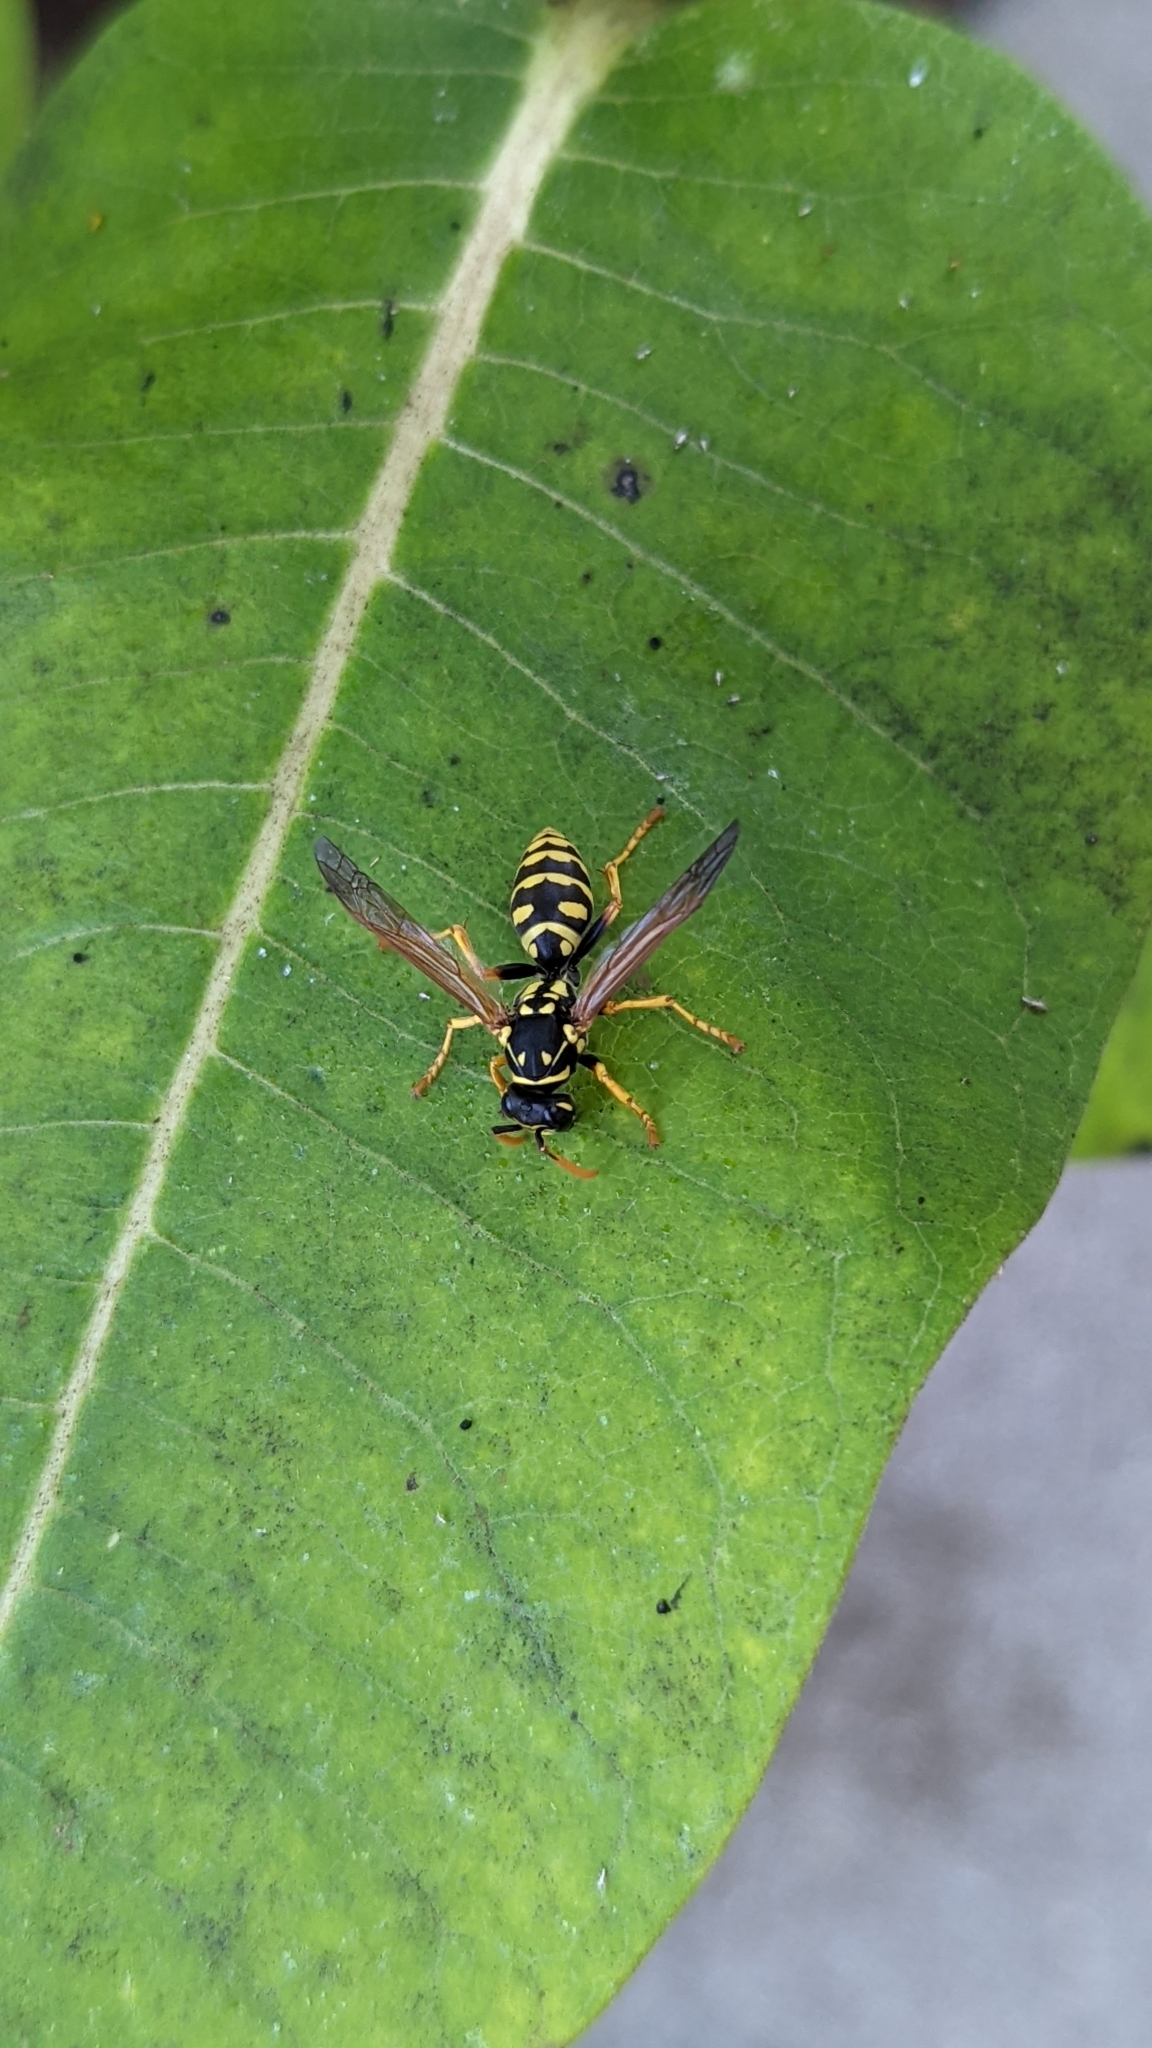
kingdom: Animalia
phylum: Arthropoda
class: Insecta
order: Hymenoptera
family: Eumenidae
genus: Polistes
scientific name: Polistes dominula
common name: Paper wasp
